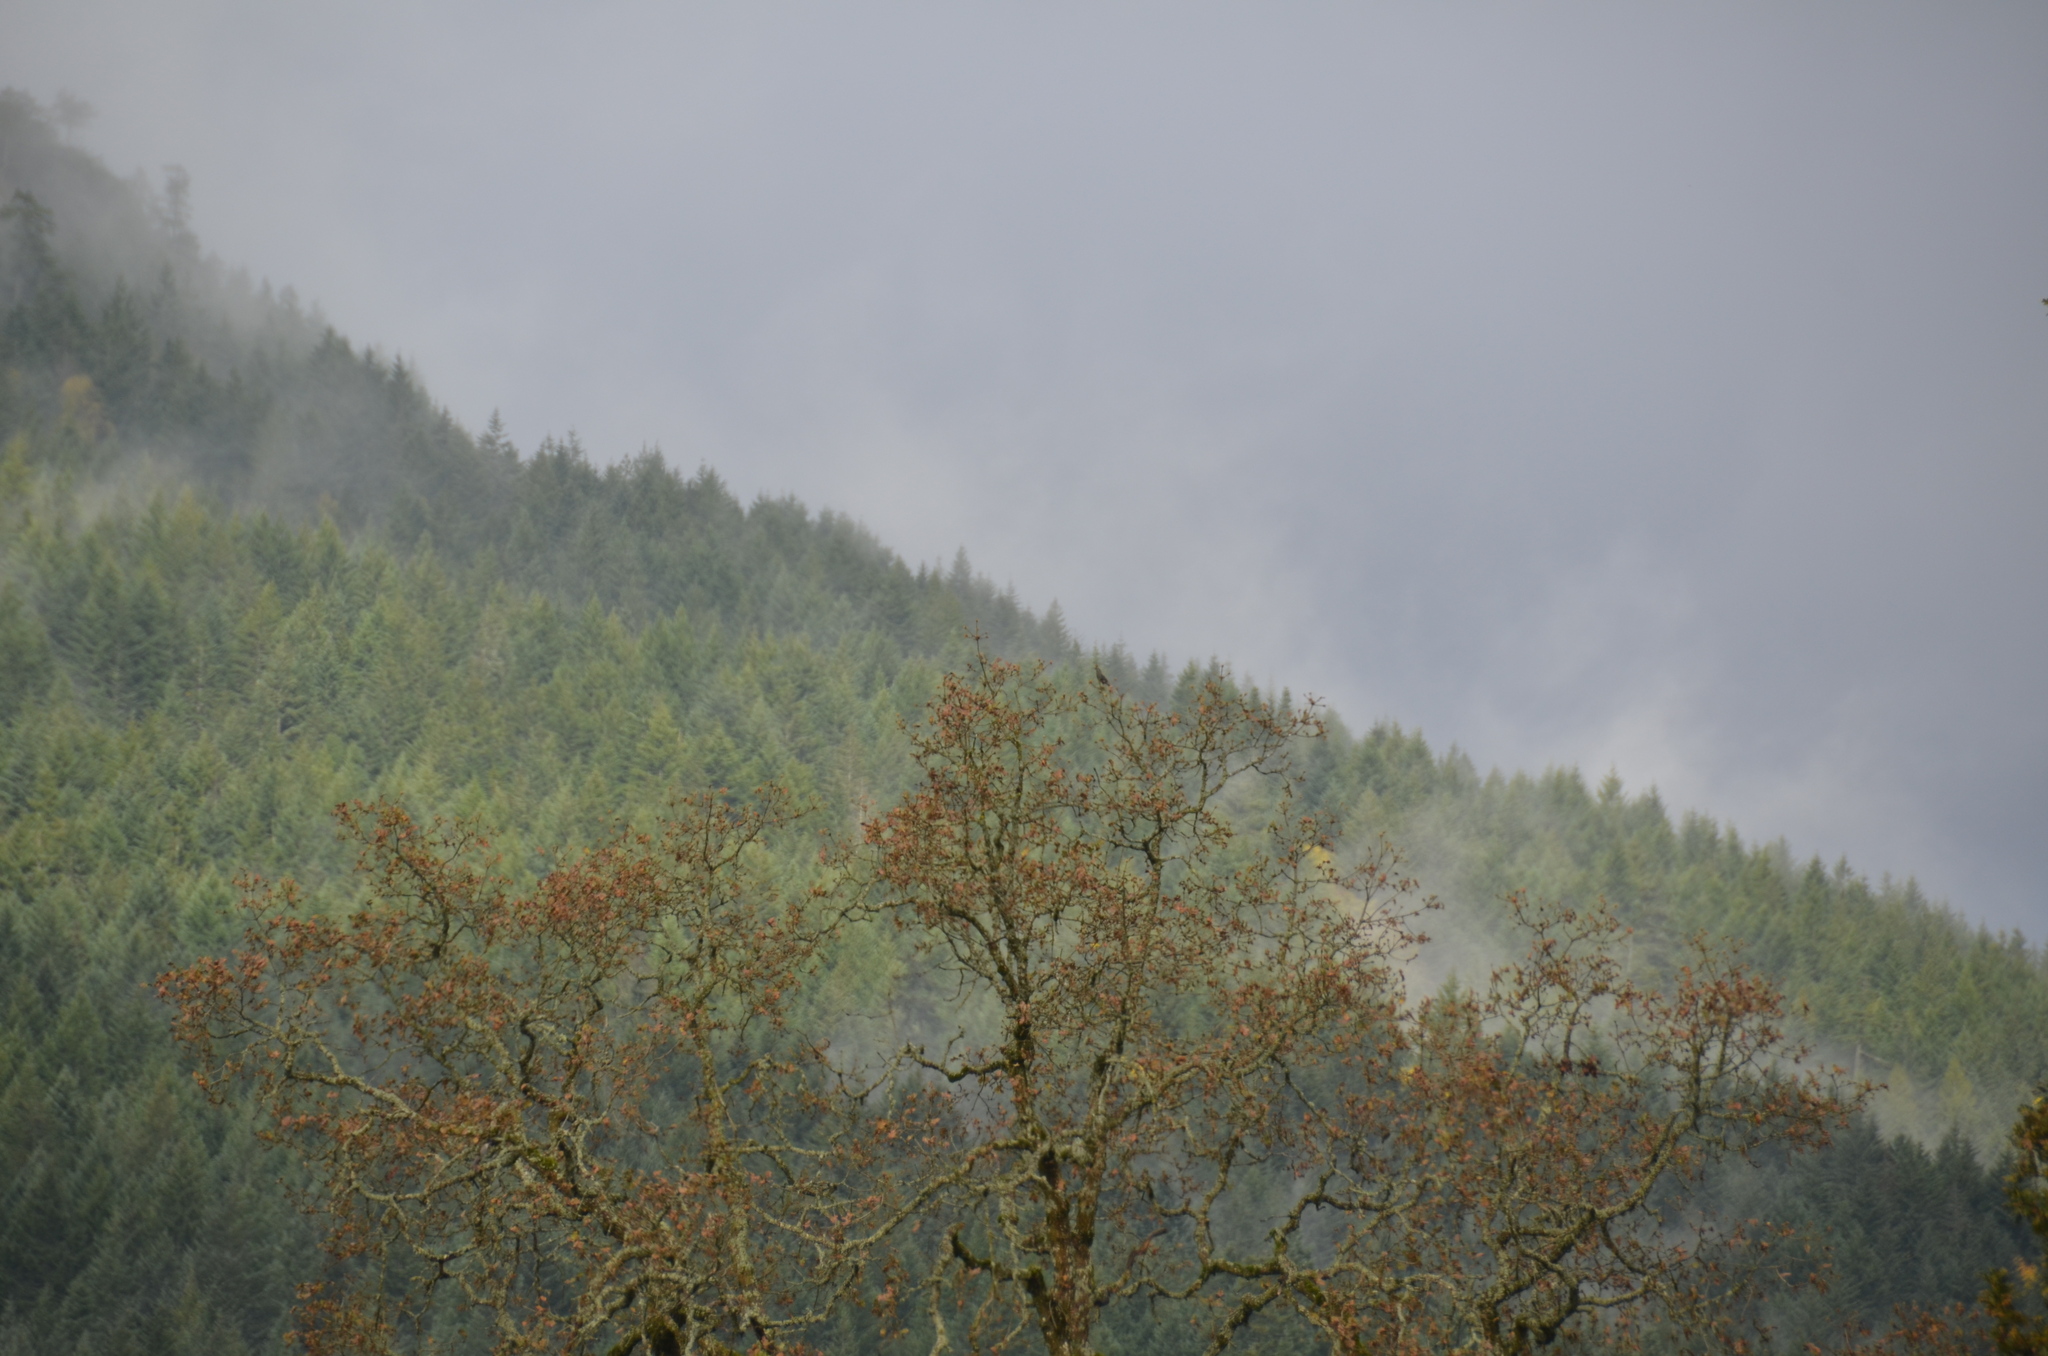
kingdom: Plantae
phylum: Tracheophyta
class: Magnoliopsida
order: Fagales
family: Fagaceae
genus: Quercus
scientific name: Quercus garryana
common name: Garry oak
